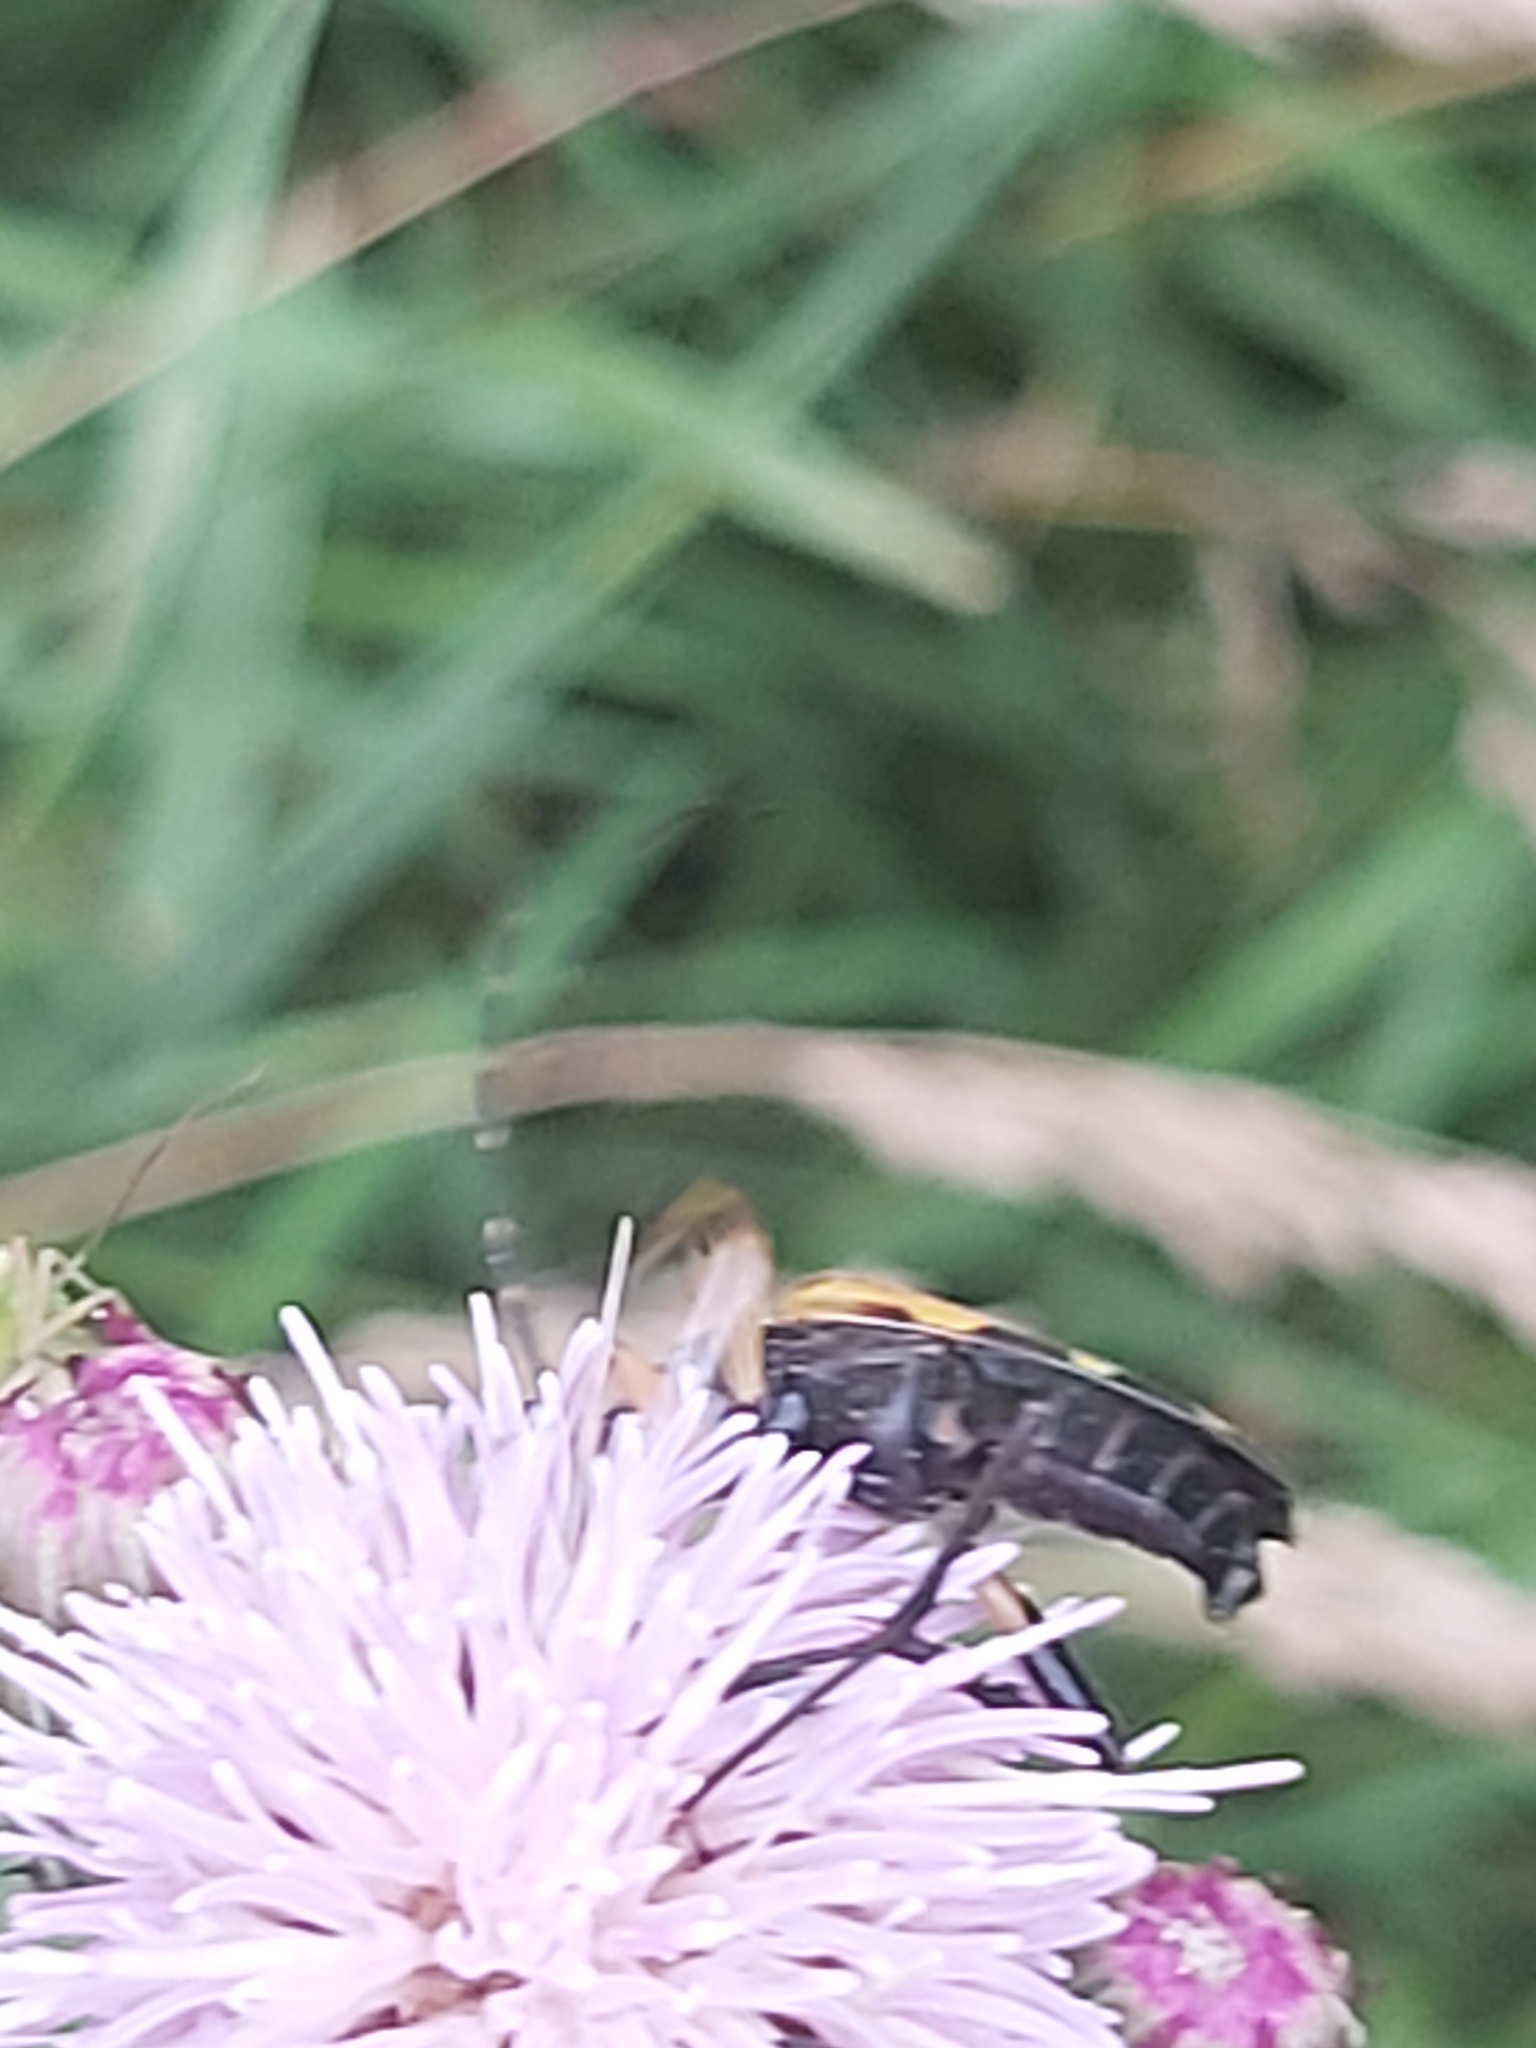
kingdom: Animalia
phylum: Arthropoda
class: Insecta
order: Coleoptera
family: Cerambycidae
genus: Rutpela
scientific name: Rutpela maculata
